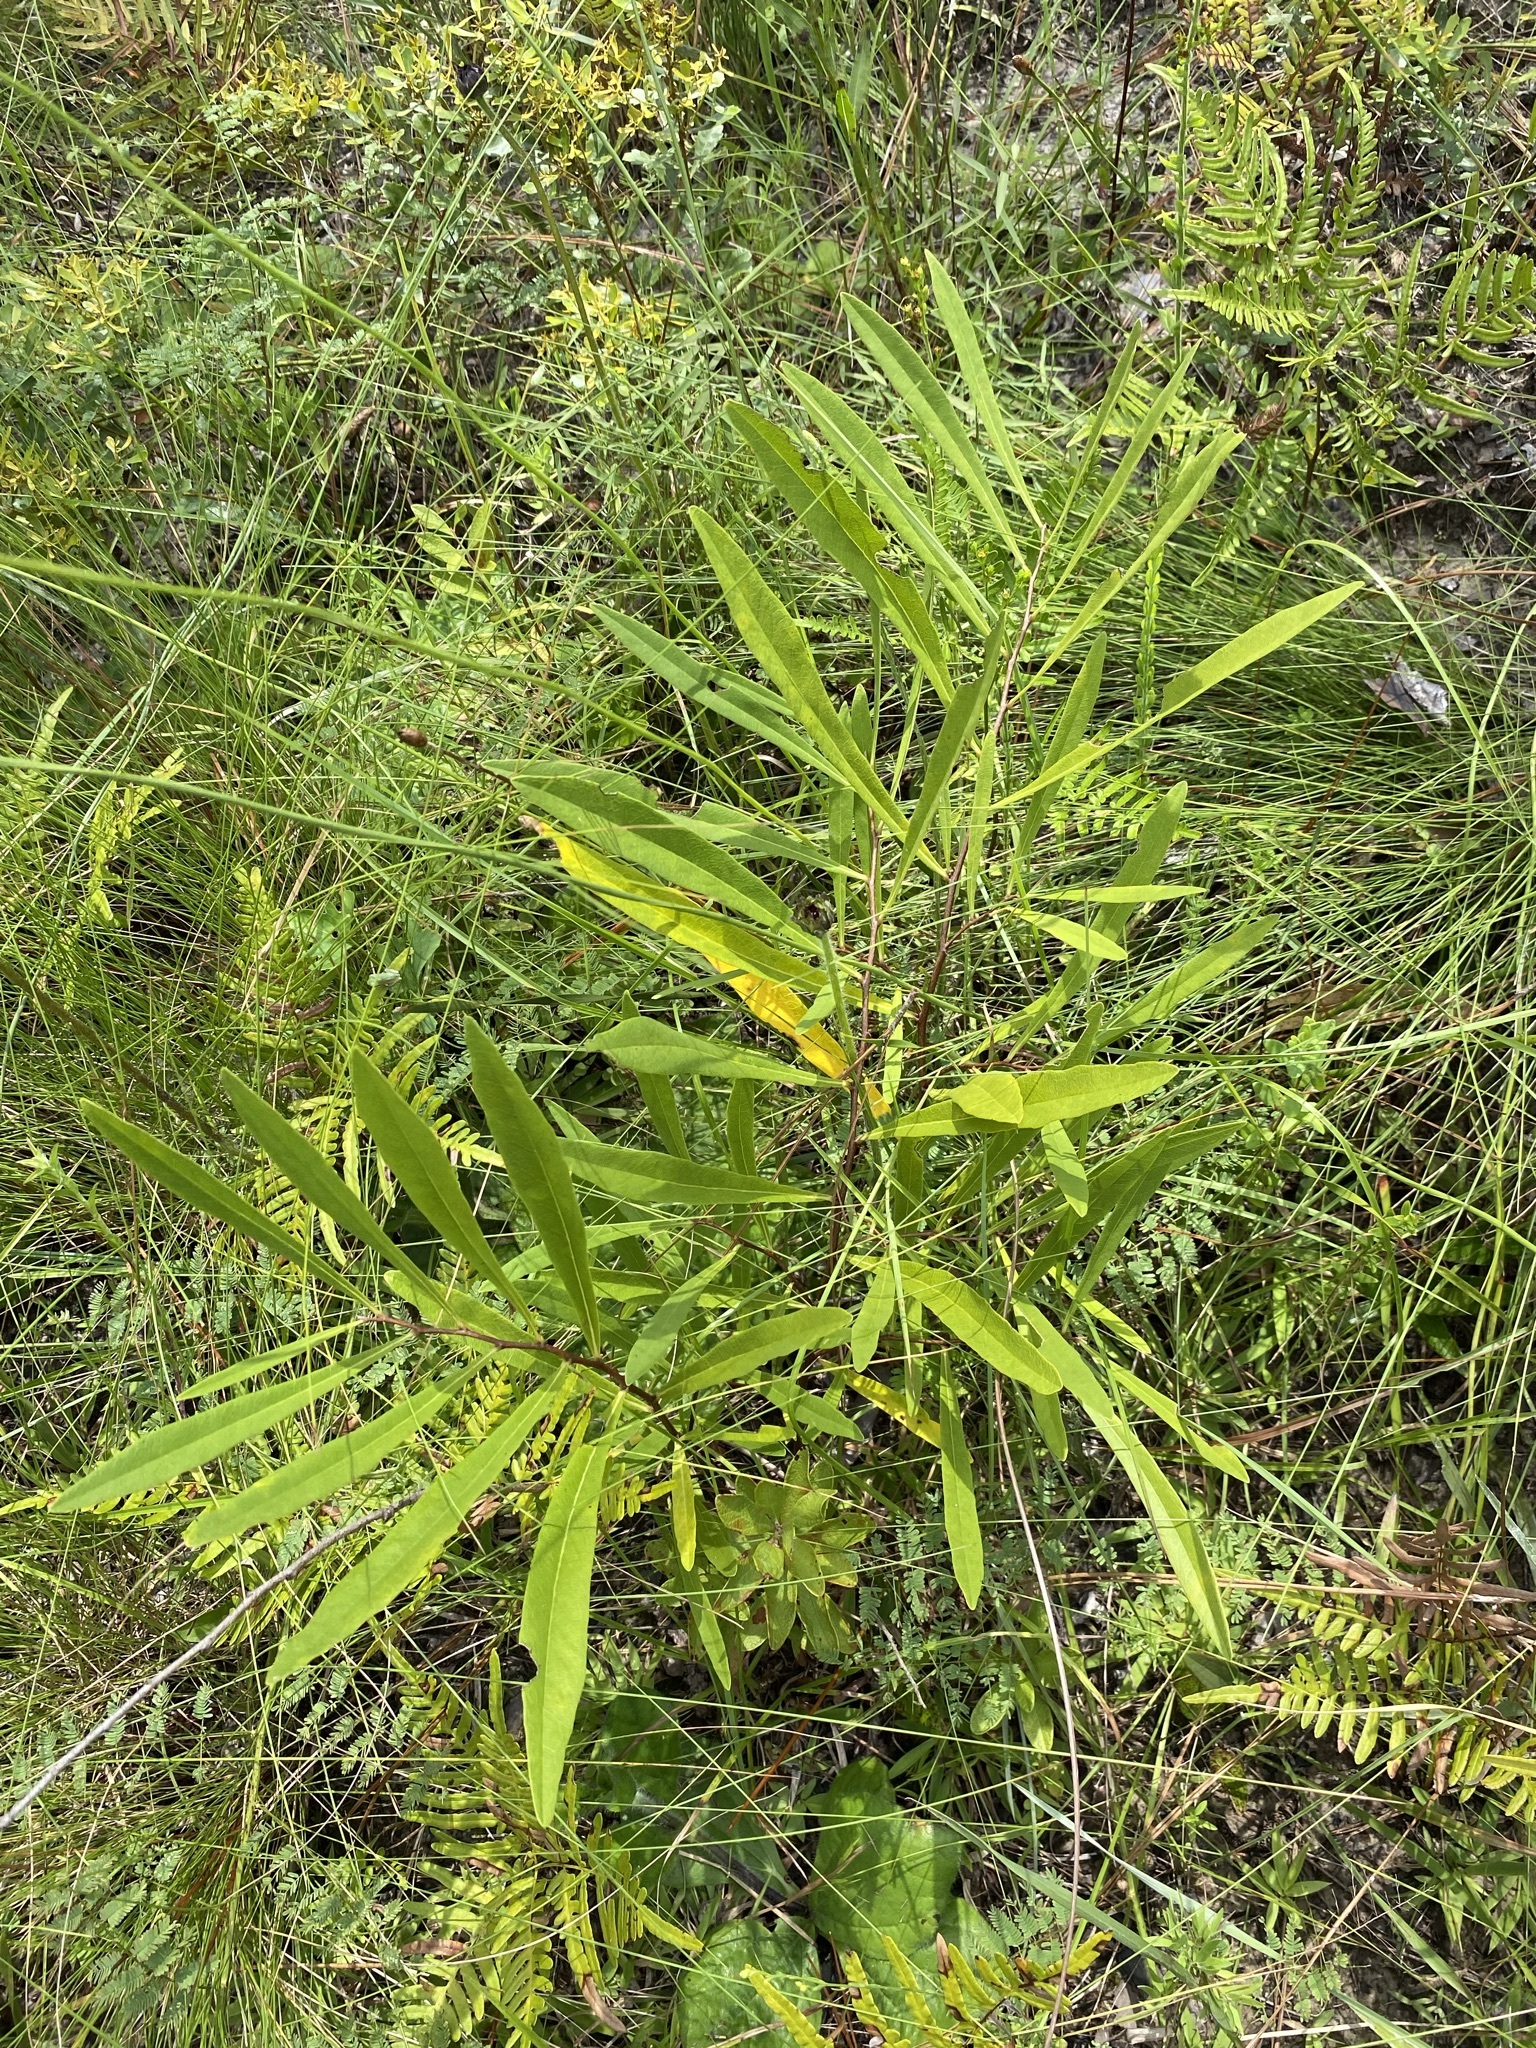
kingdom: Plantae
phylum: Tracheophyta
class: Magnoliopsida
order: Magnoliales
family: Annonaceae
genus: Asimina
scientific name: Asimina longifolia
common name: Polecatbush
